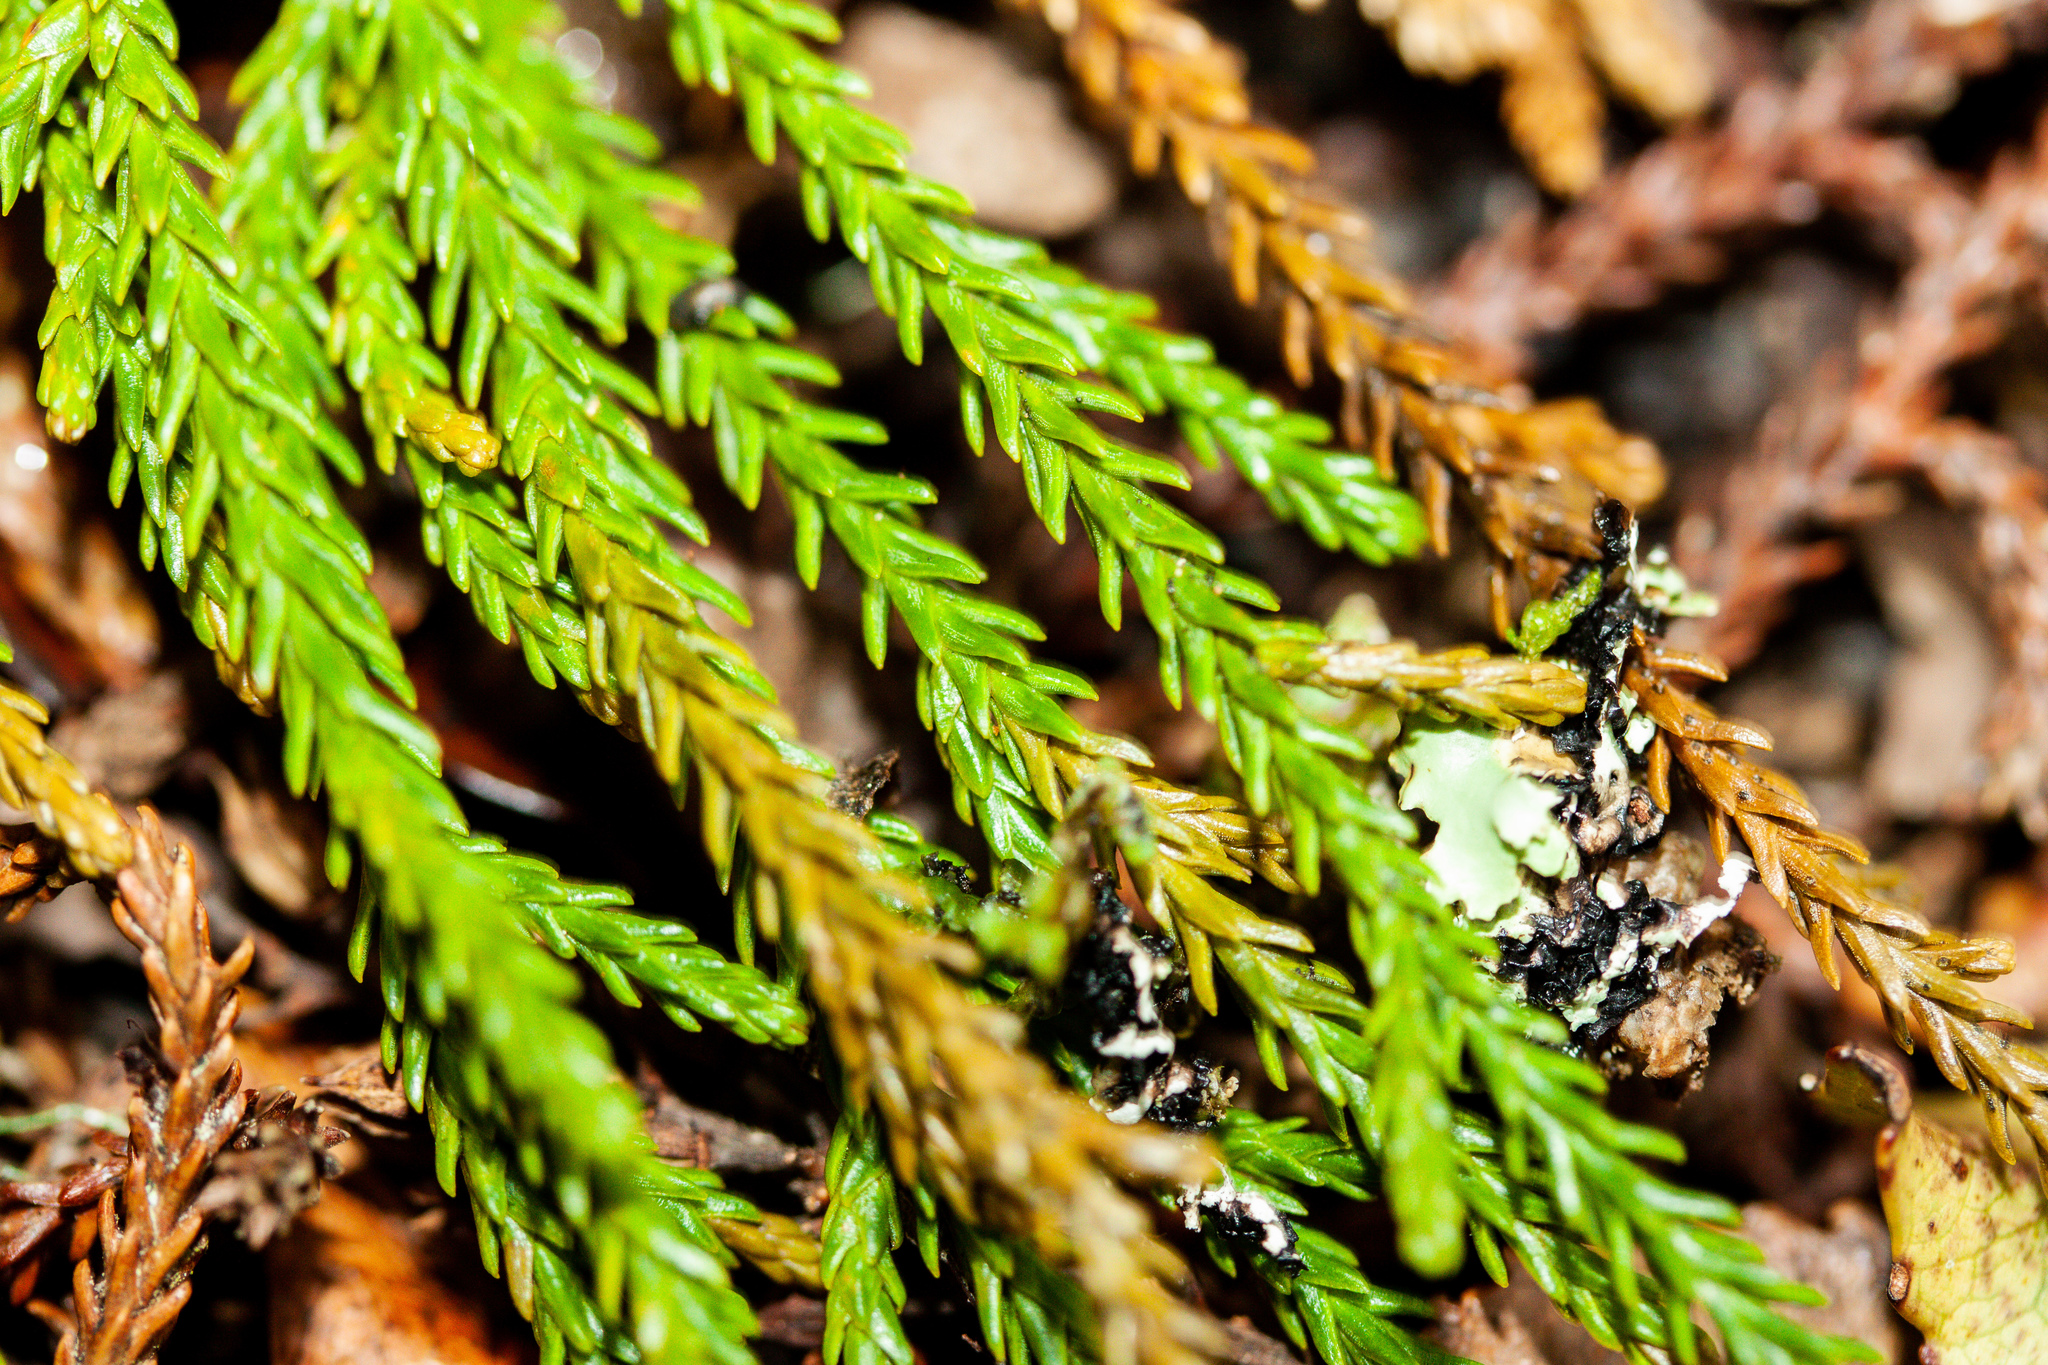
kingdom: Plantae
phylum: Tracheophyta
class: Pinopsida
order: Pinales
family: Podocarpaceae
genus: Dacrydium
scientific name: Dacrydium cupressinum
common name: Red pine
